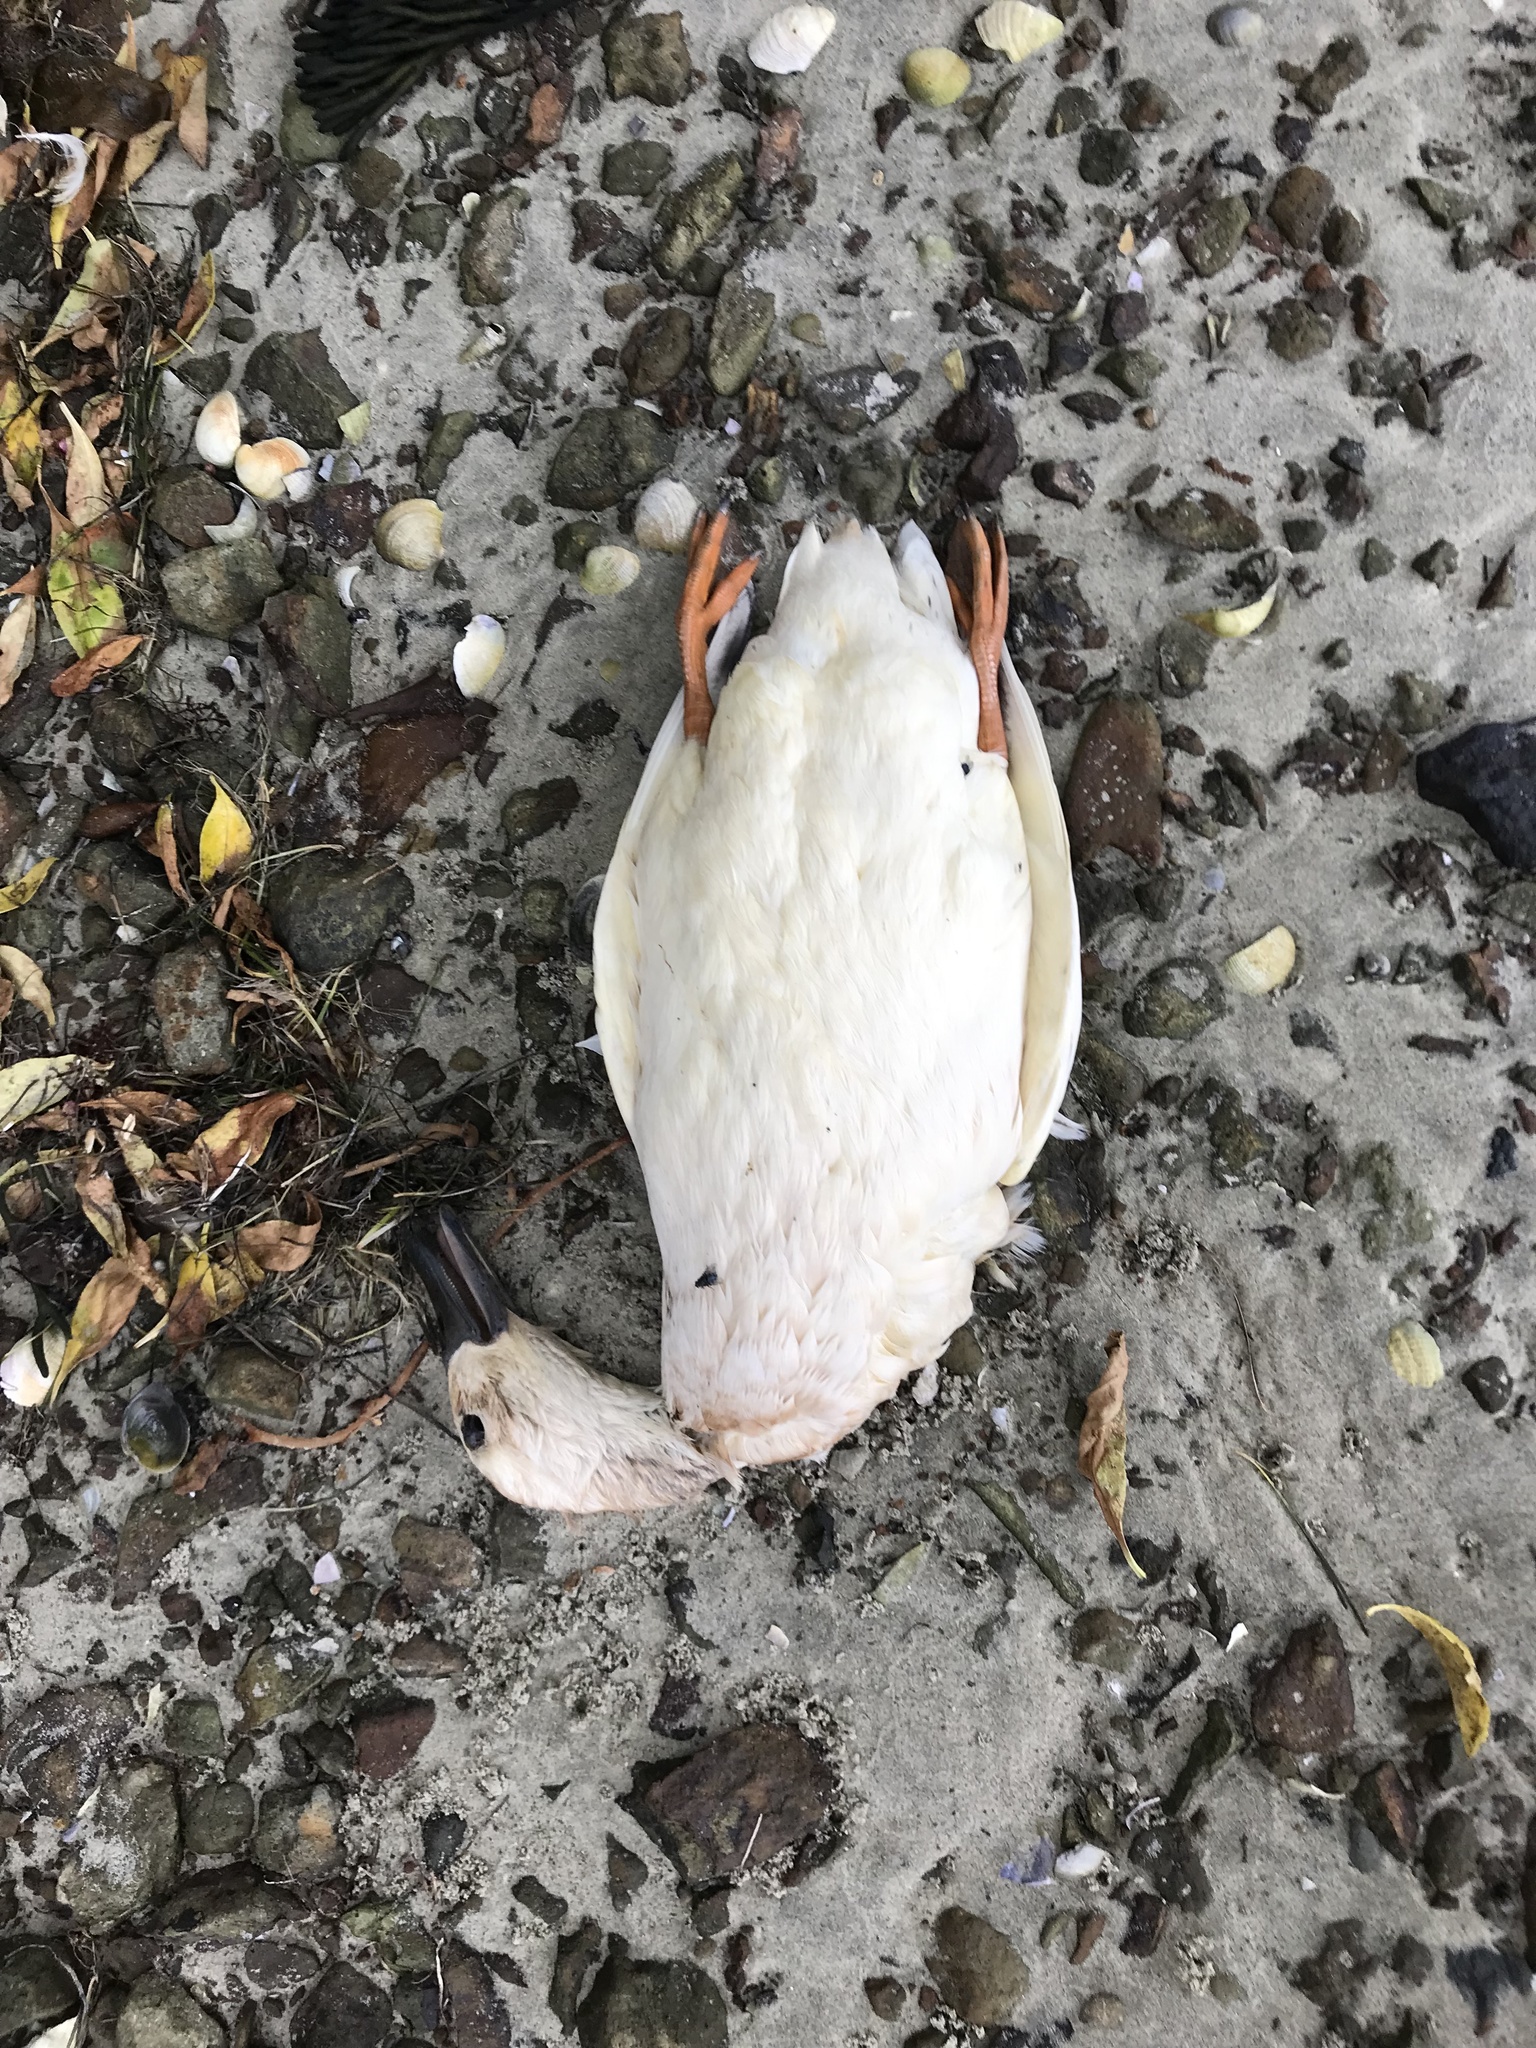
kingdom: Animalia
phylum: Chordata
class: Aves
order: Anseriformes
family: Anatidae
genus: Anas
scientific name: Anas platyrhynchos
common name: Mallard
